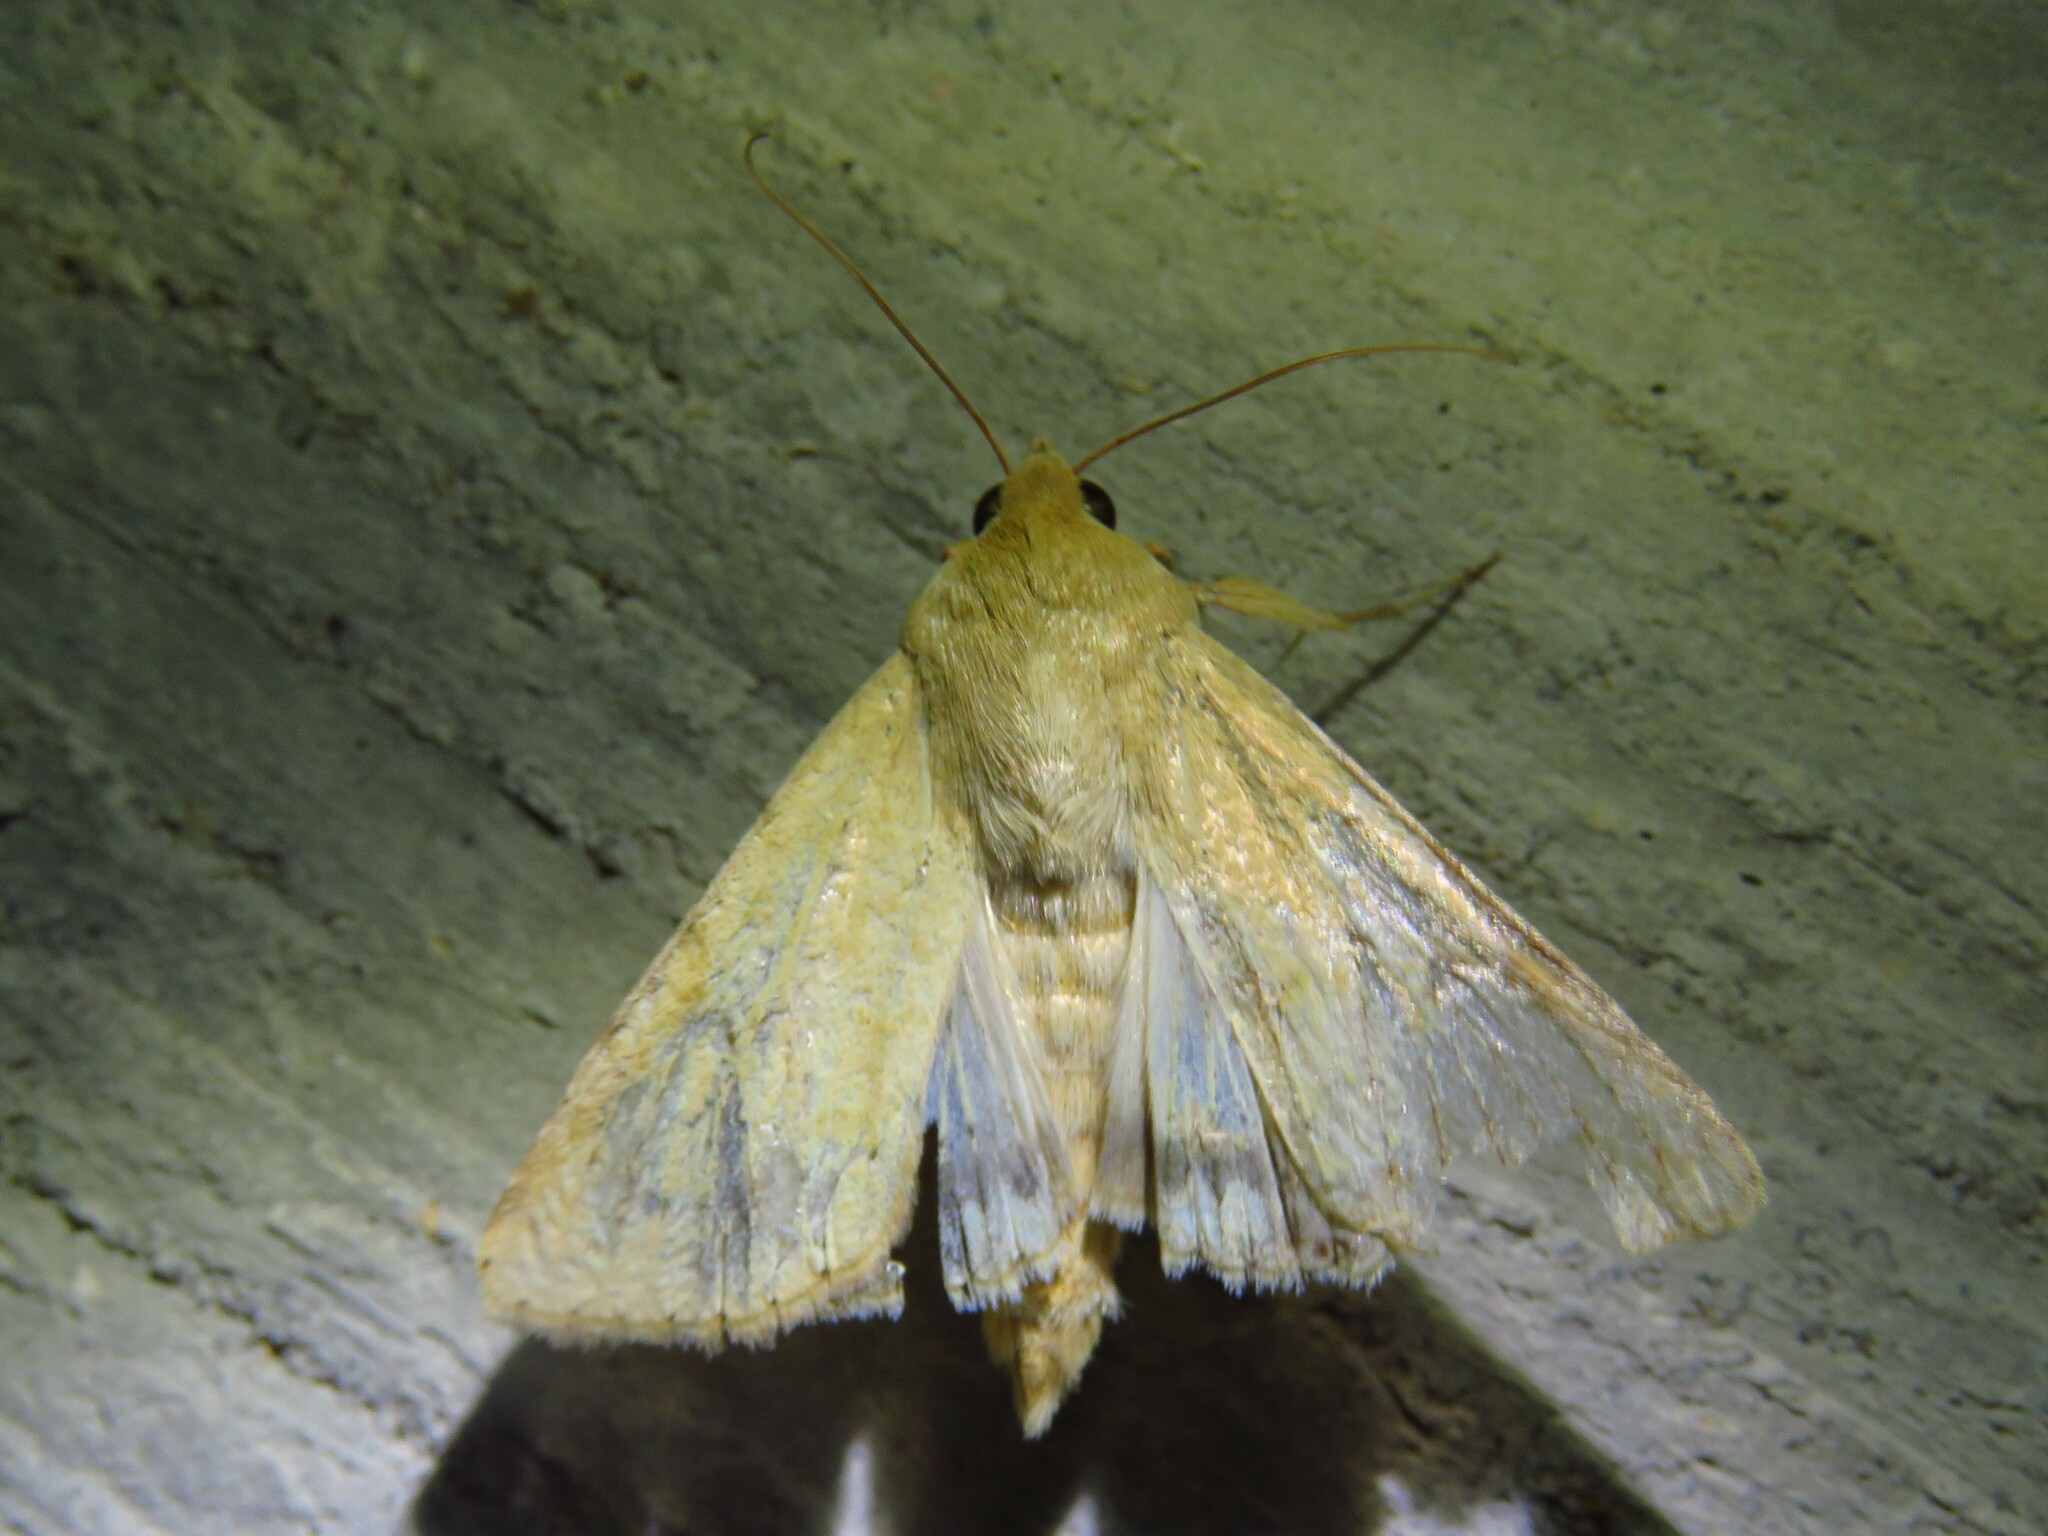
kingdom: Animalia
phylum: Arthropoda
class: Insecta
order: Lepidoptera
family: Noctuidae
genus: Helicoverpa
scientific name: Helicoverpa zea
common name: Bollworm
